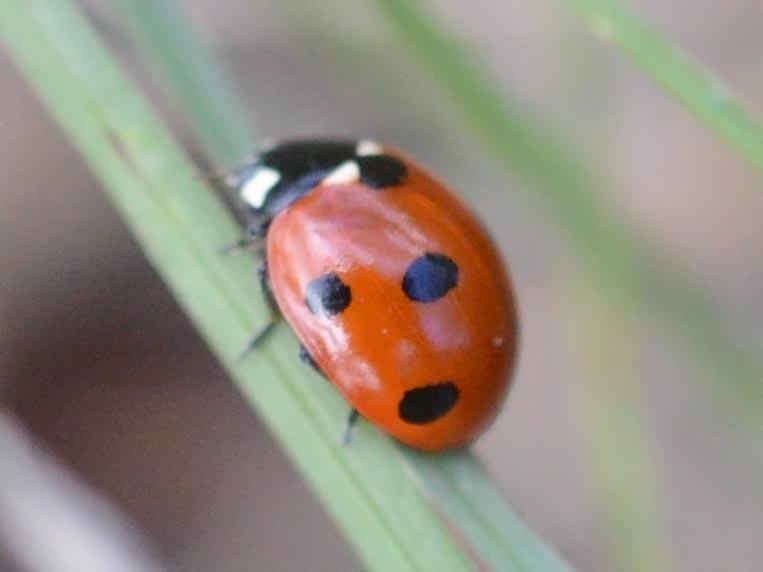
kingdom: Animalia
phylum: Arthropoda
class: Insecta
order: Coleoptera
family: Coccinellidae
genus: Coccinella
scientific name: Coccinella septempunctata
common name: Sevenspotted lady beetle
